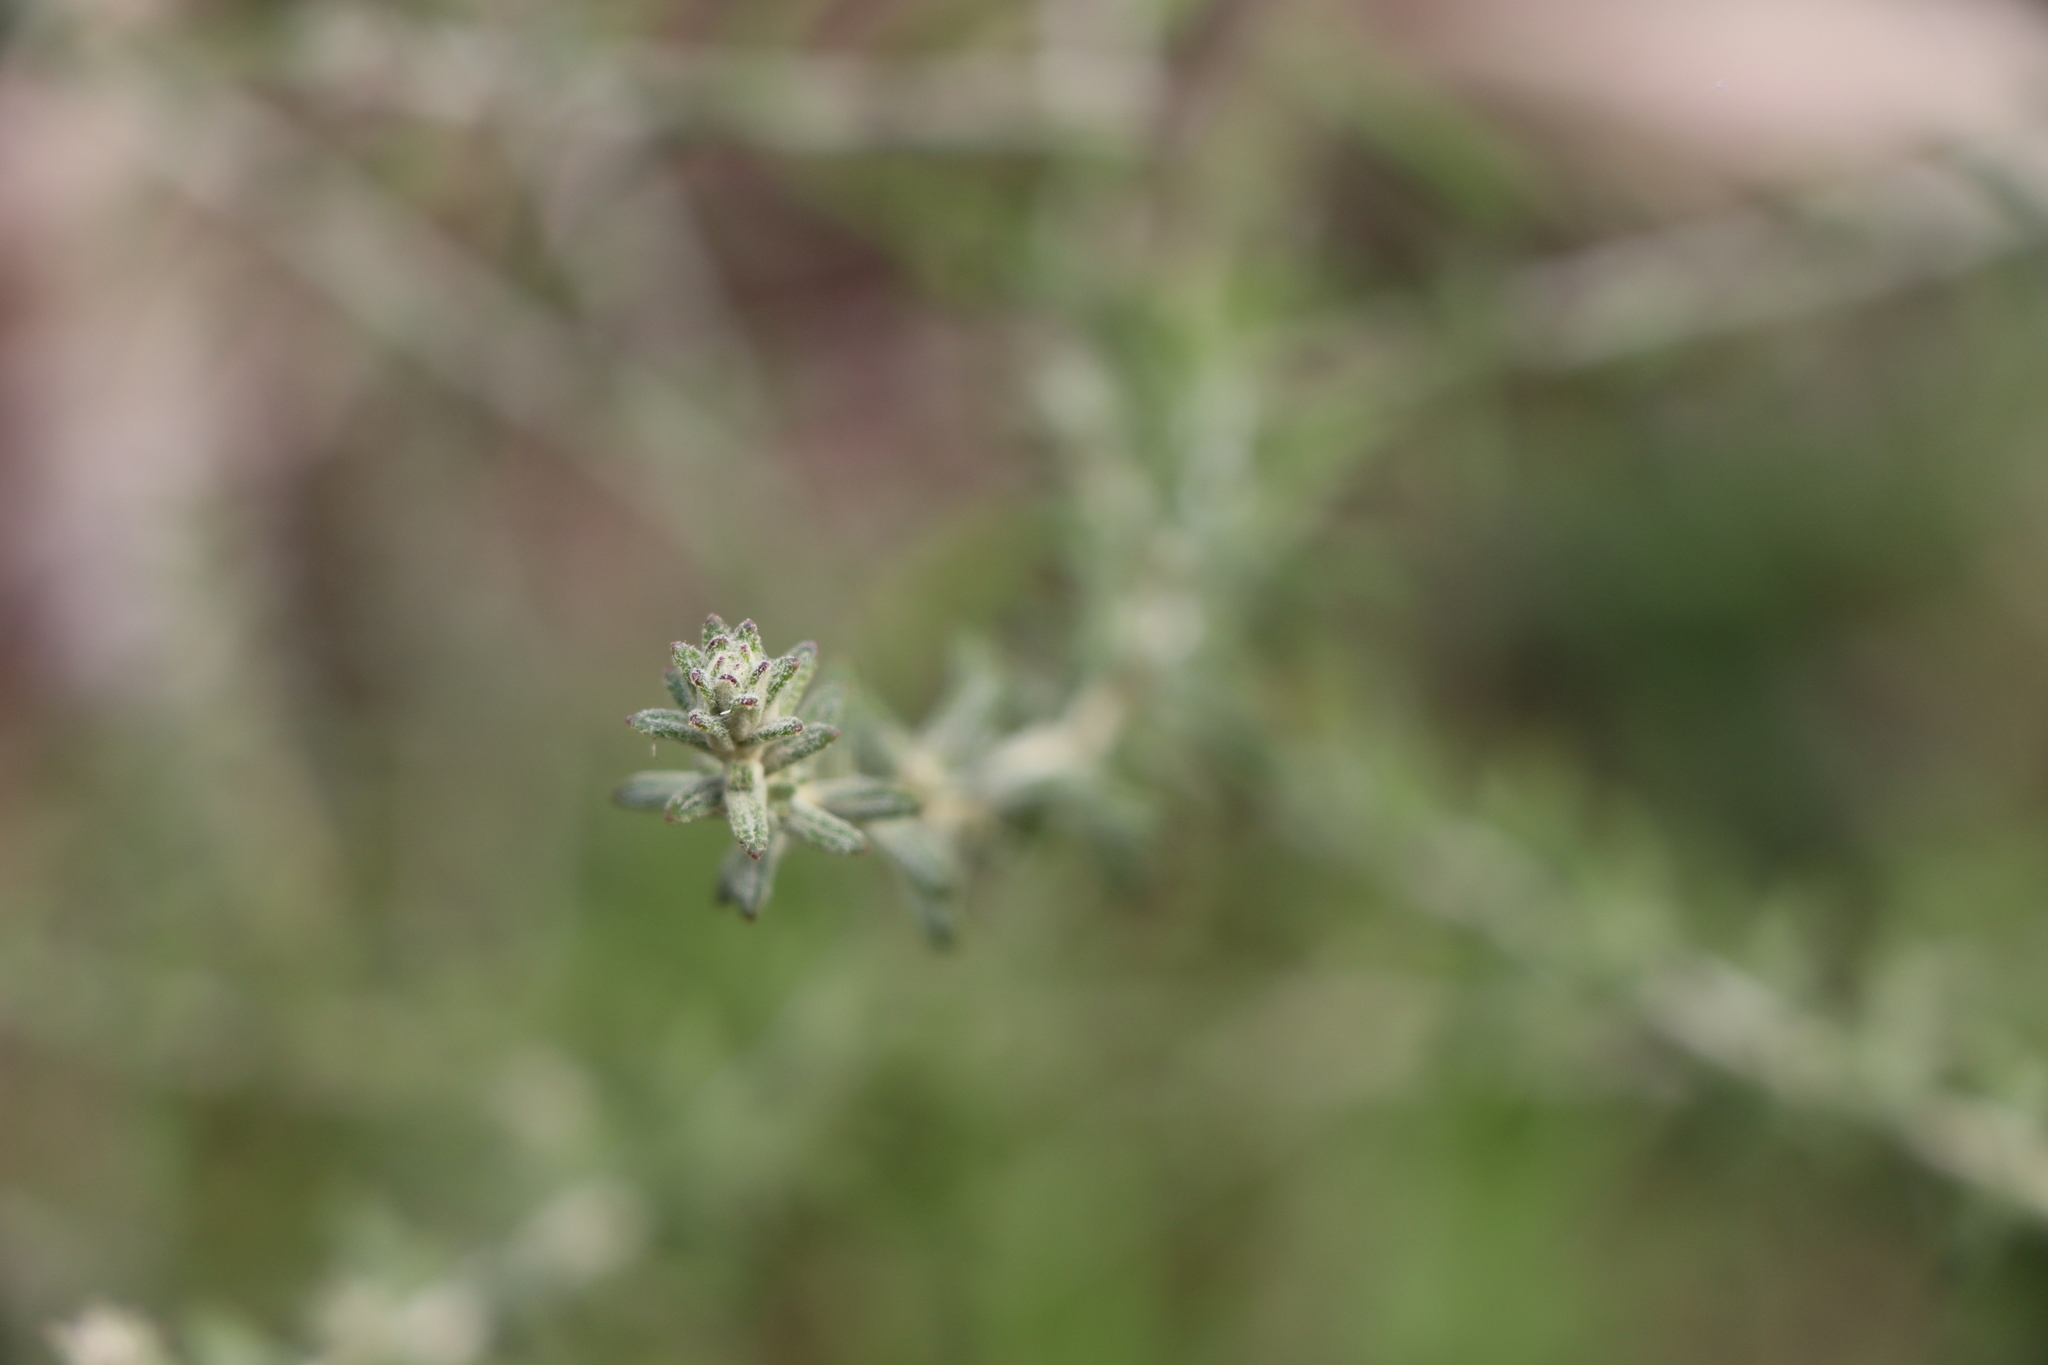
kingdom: Plantae
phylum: Tracheophyta
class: Magnoliopsida
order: Asterales
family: Asteraceae
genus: Baccharis
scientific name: Baccharis ochracea
